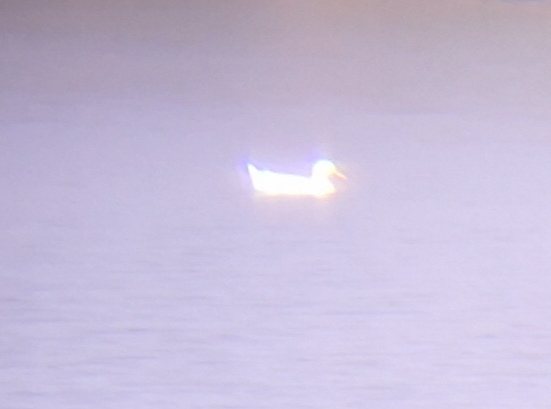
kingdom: Animalia
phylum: Chordata
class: Aves
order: Anseriformes
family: Anatidae
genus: Anas
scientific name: Anas platyrhynchos
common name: Mallard
